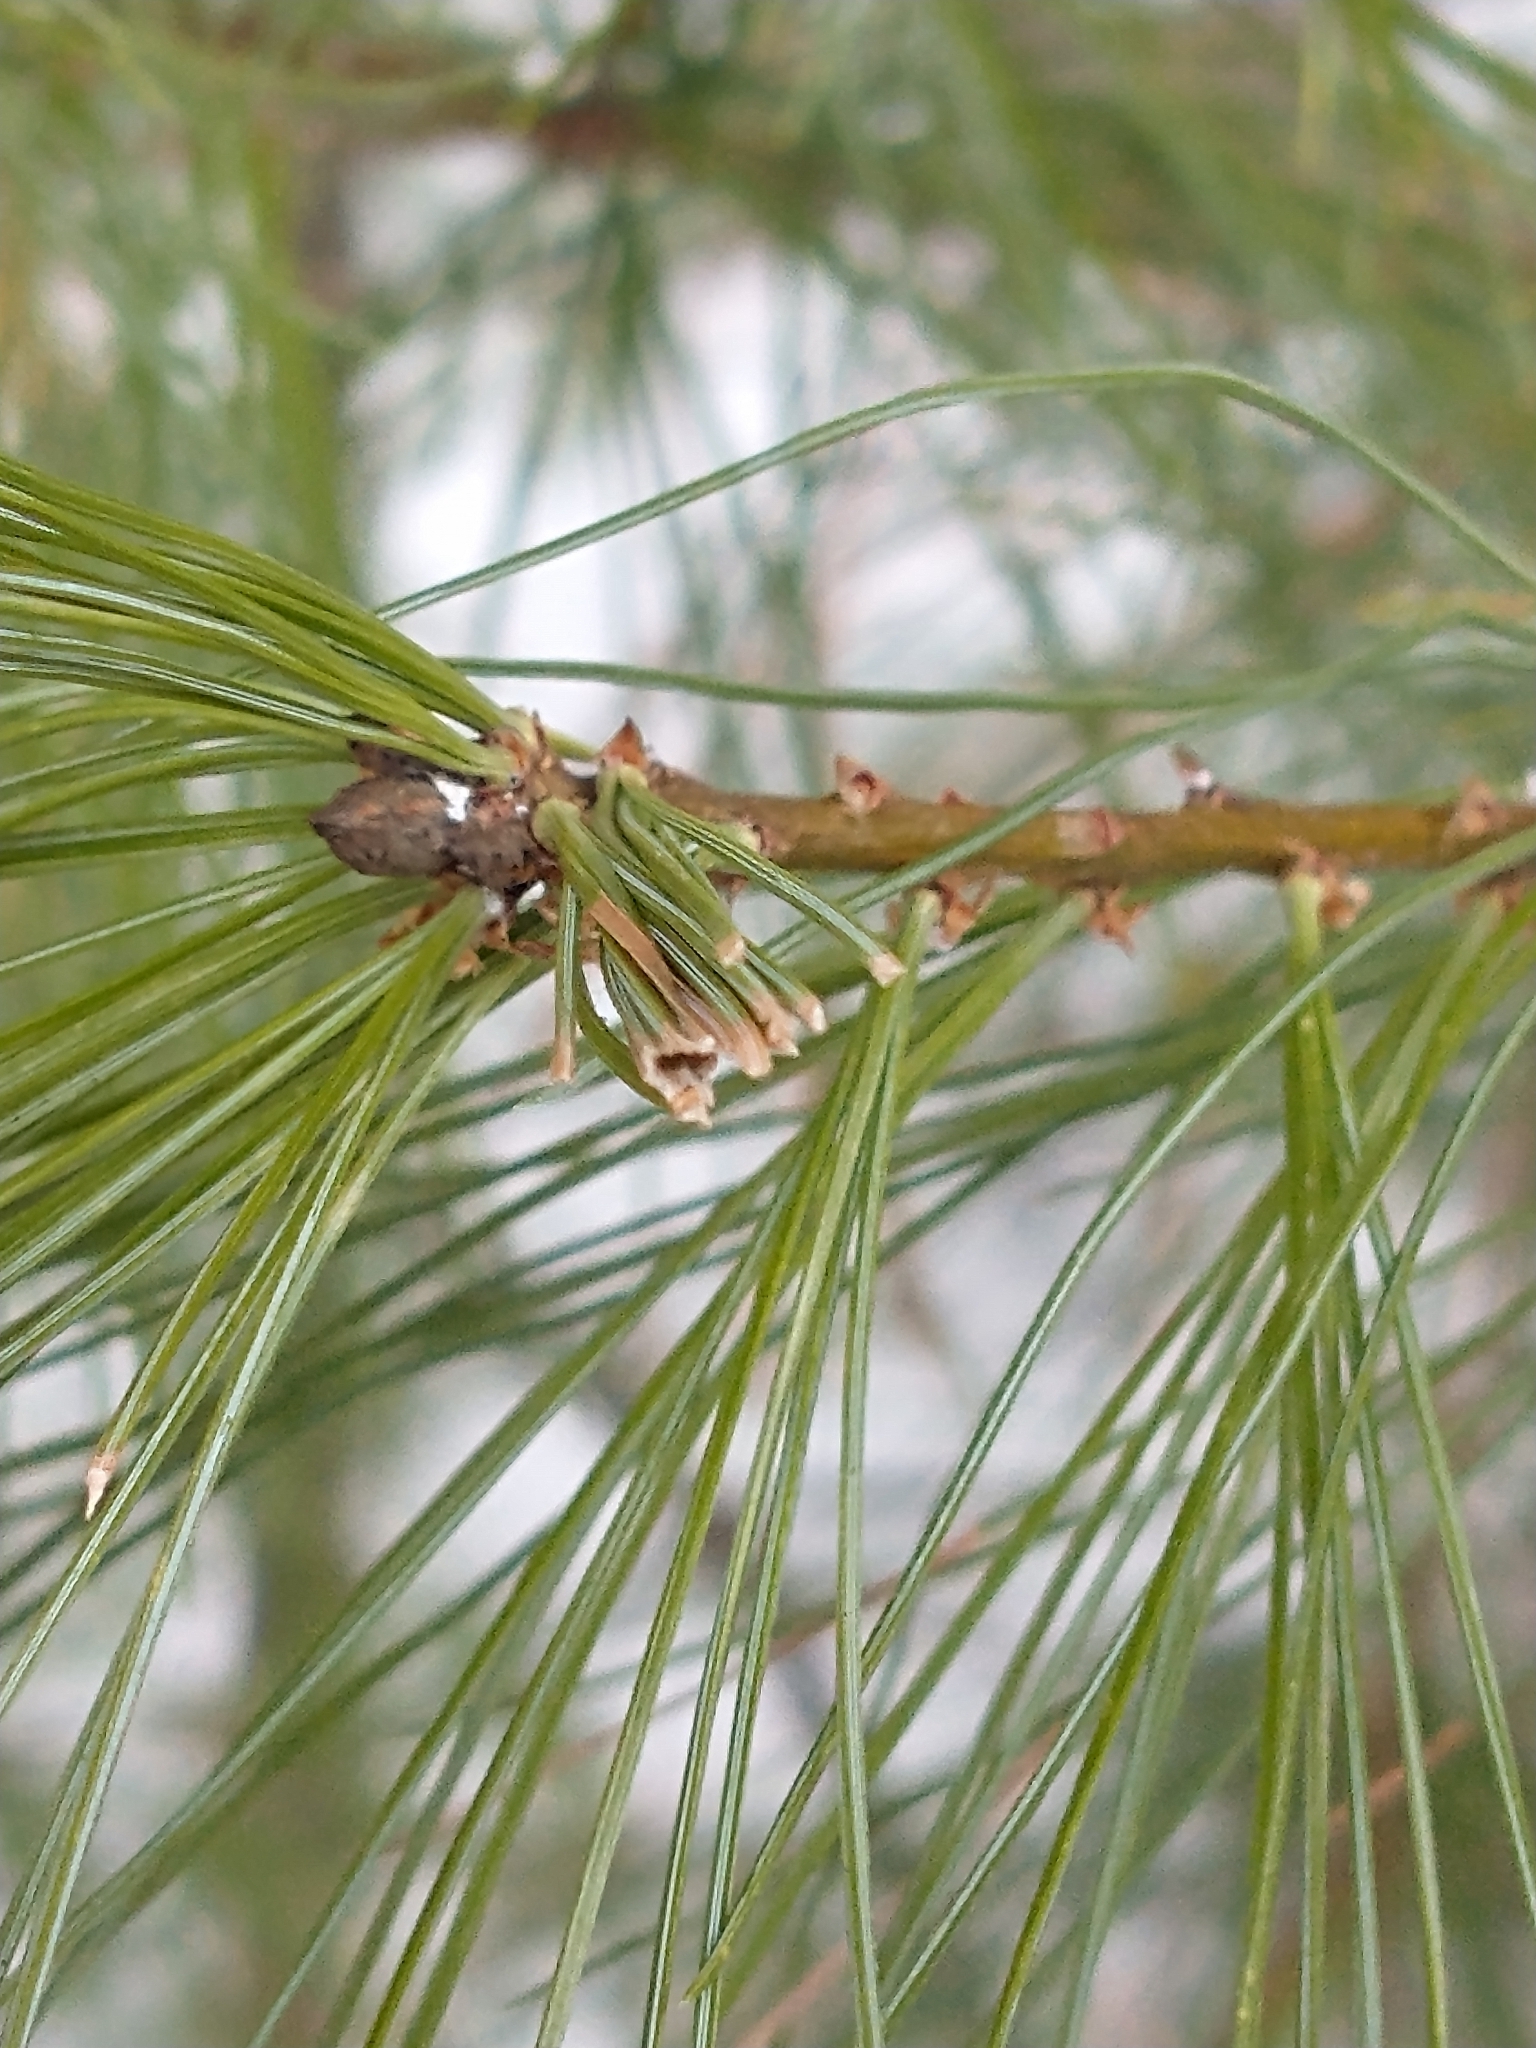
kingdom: Animalia
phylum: Arthropoda
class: Insecta
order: Lepidoptera
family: Tortricidae
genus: Argyrotaenia
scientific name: Argyrotaenia pinatubana
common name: Pine tube moth
